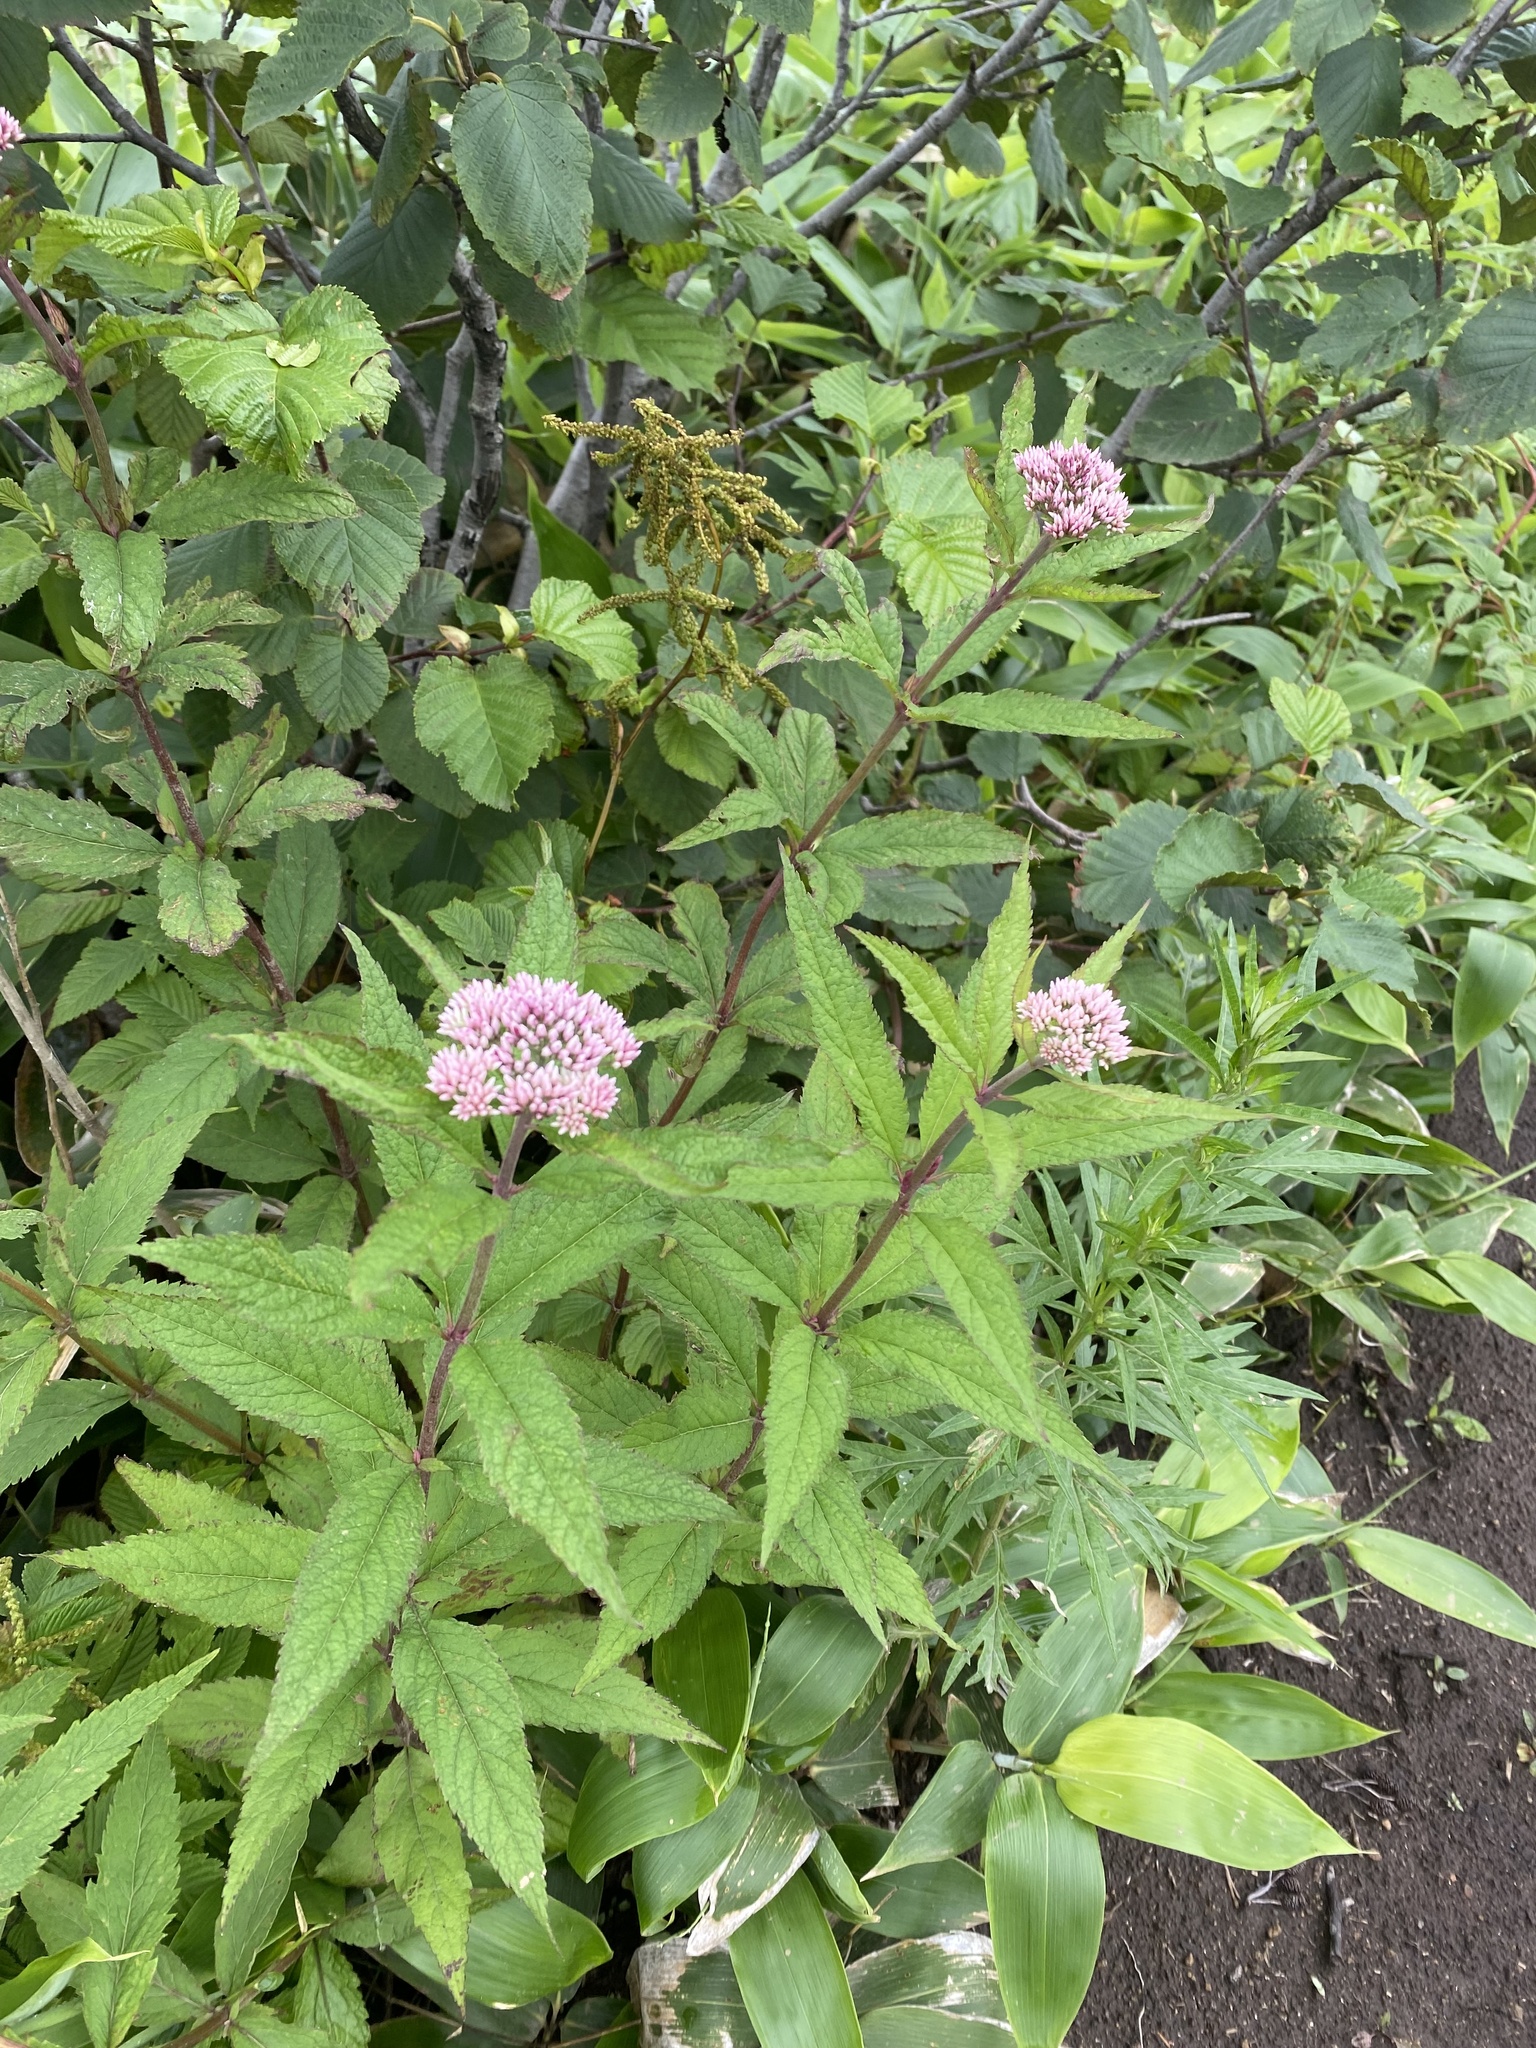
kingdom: Plantae
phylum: Tracheophyta
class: Magnoliopsida
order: Asterales
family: Asteraceae
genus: Eupatorium
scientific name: Eupatorium glehnii
